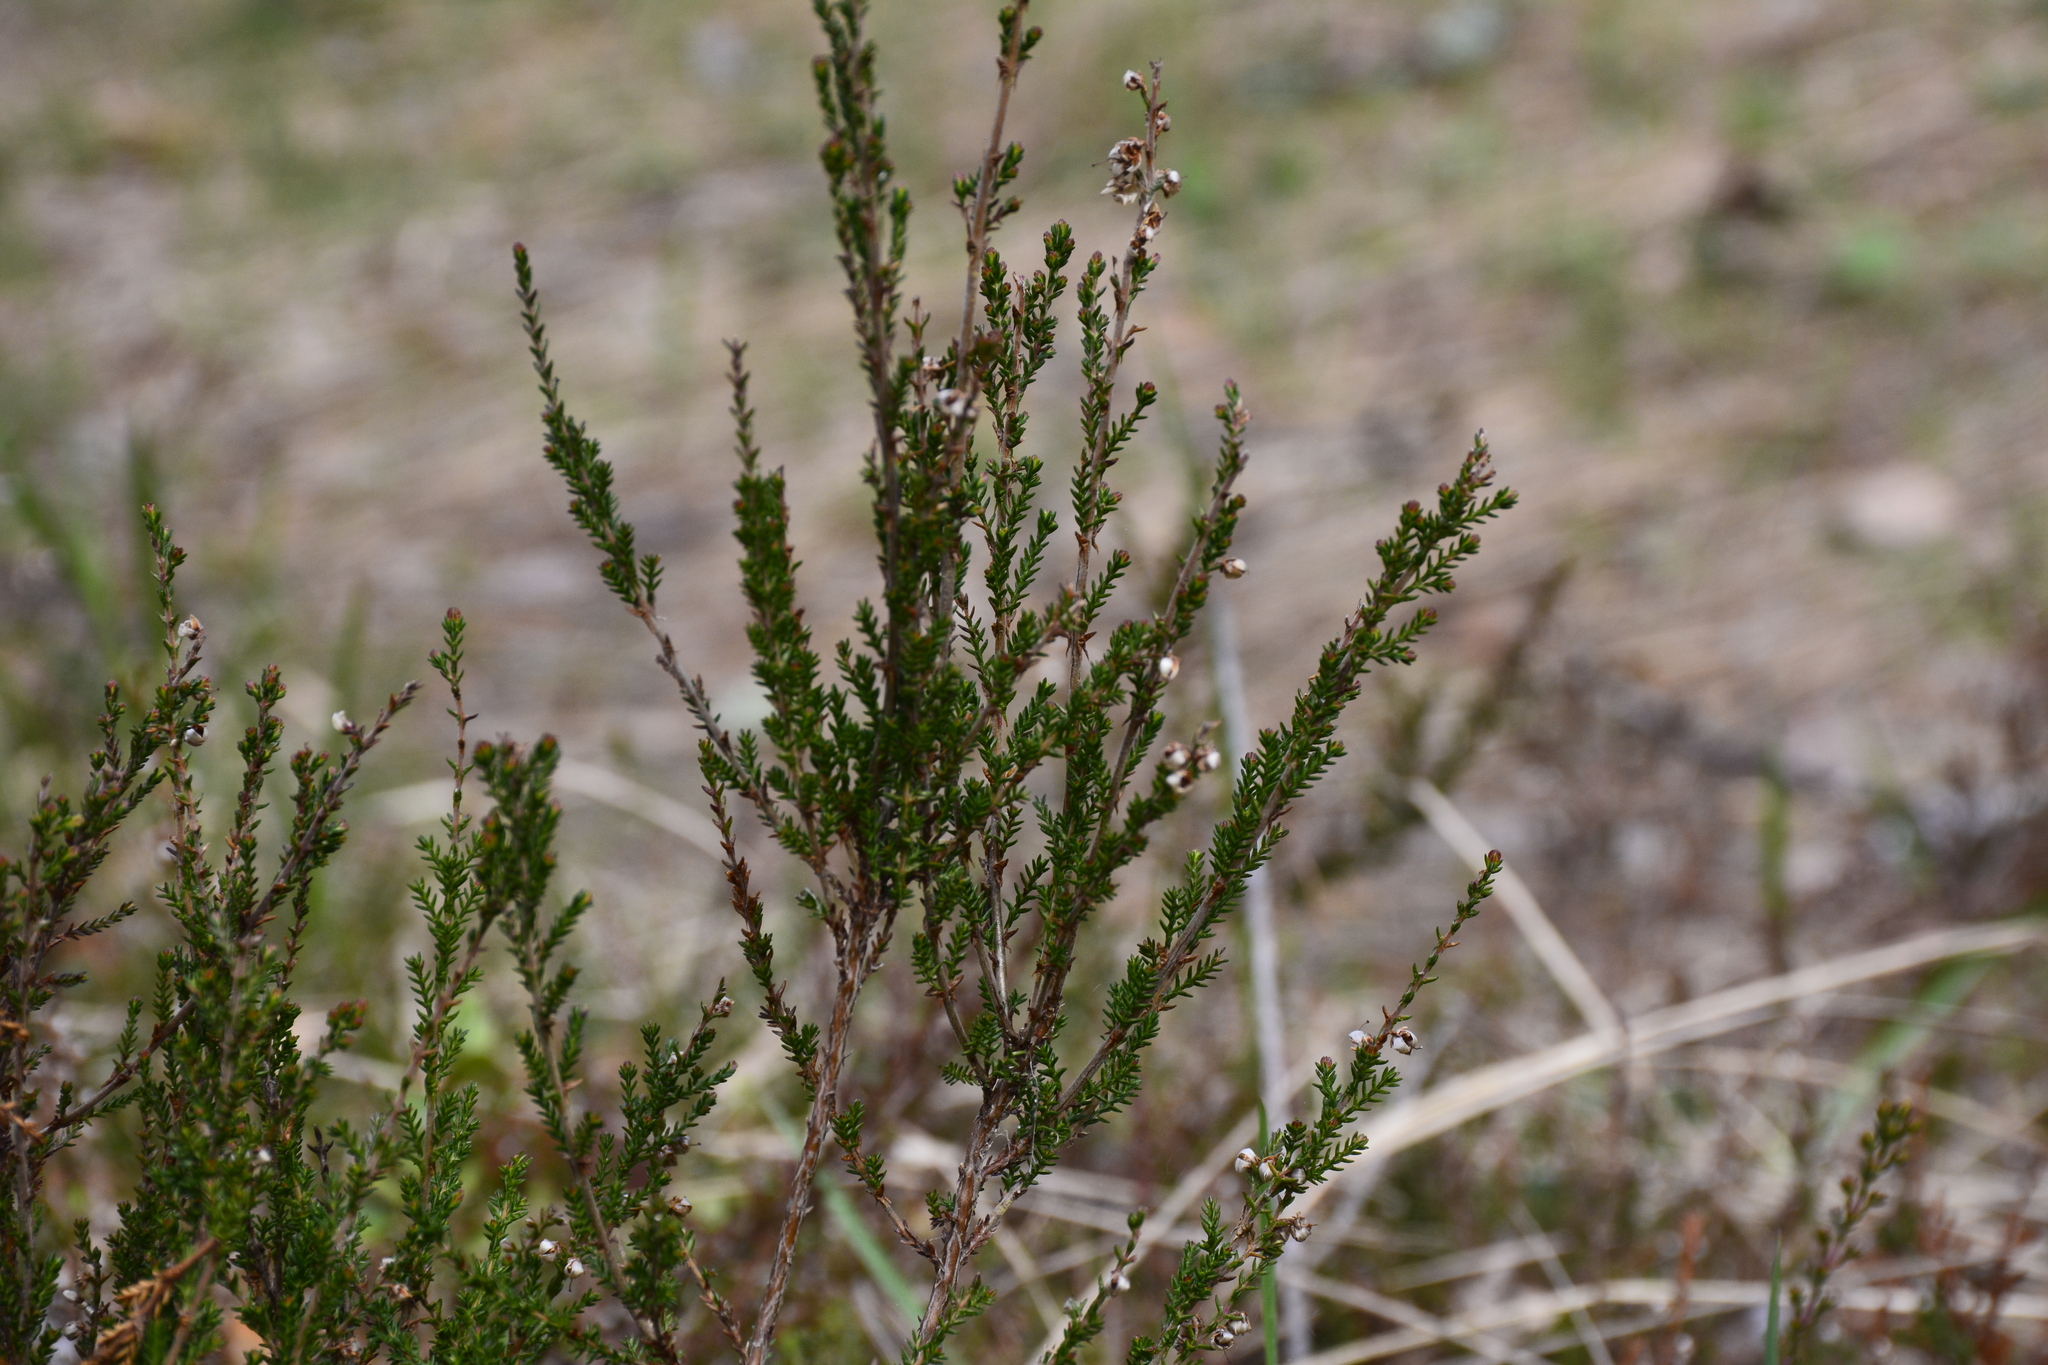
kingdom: Plantae
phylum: Tracheophyta
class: Magnoliopsida
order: Ericales
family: Ericaceae
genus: Calluna
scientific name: Calluna vulgaris
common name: Heather
